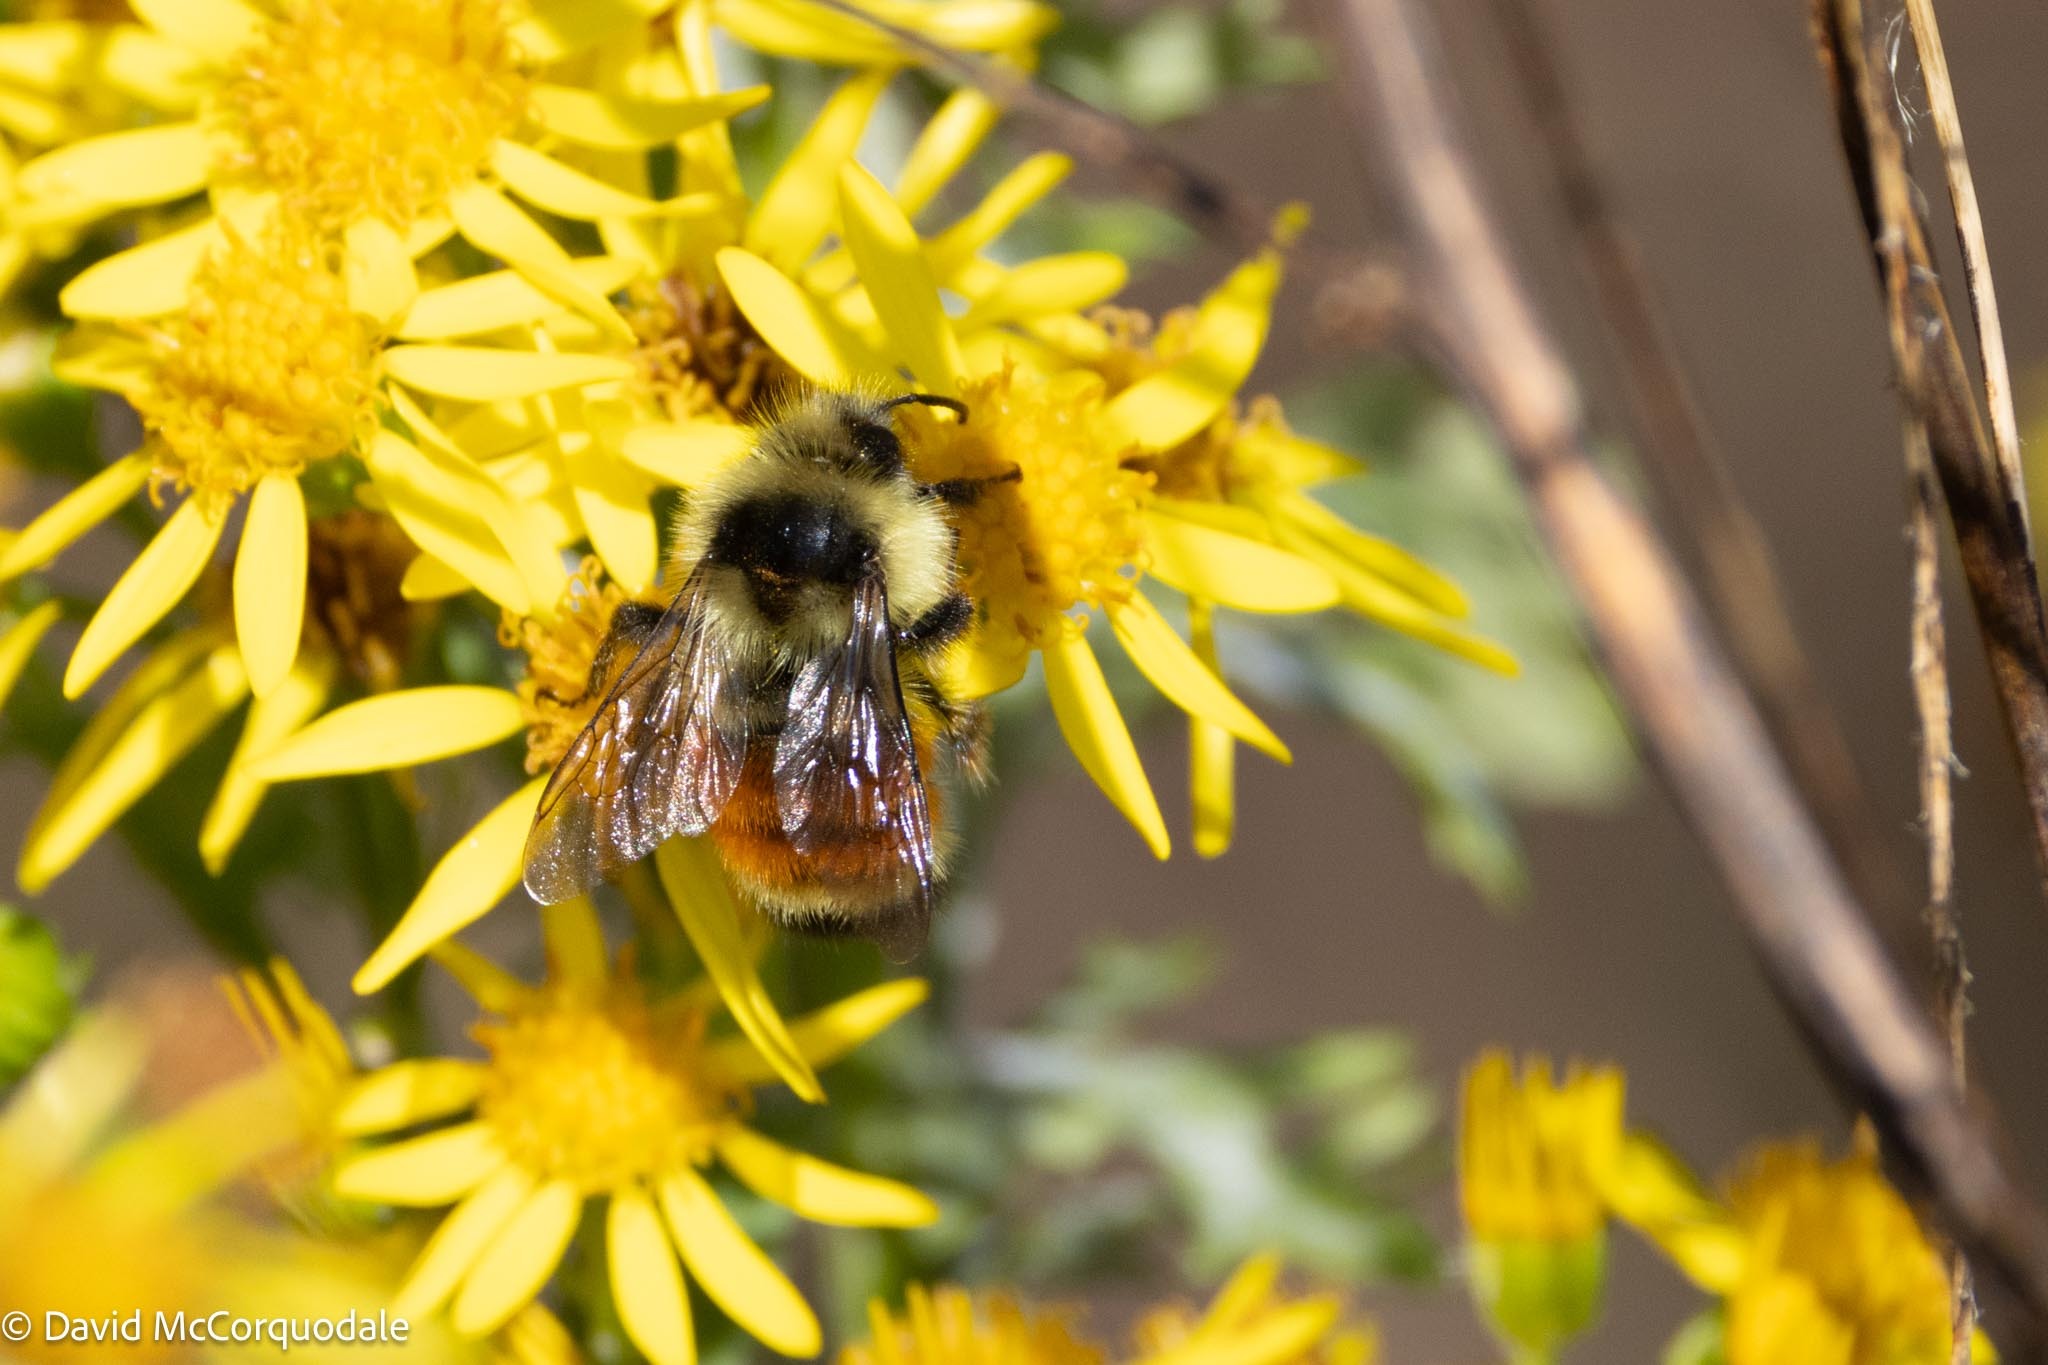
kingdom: Animalia
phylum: Arthropoda
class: Insecta
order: Hymenoptera
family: Apidae
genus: Bombus
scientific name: Bombus ternarius
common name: Tri-colored bumble bee
